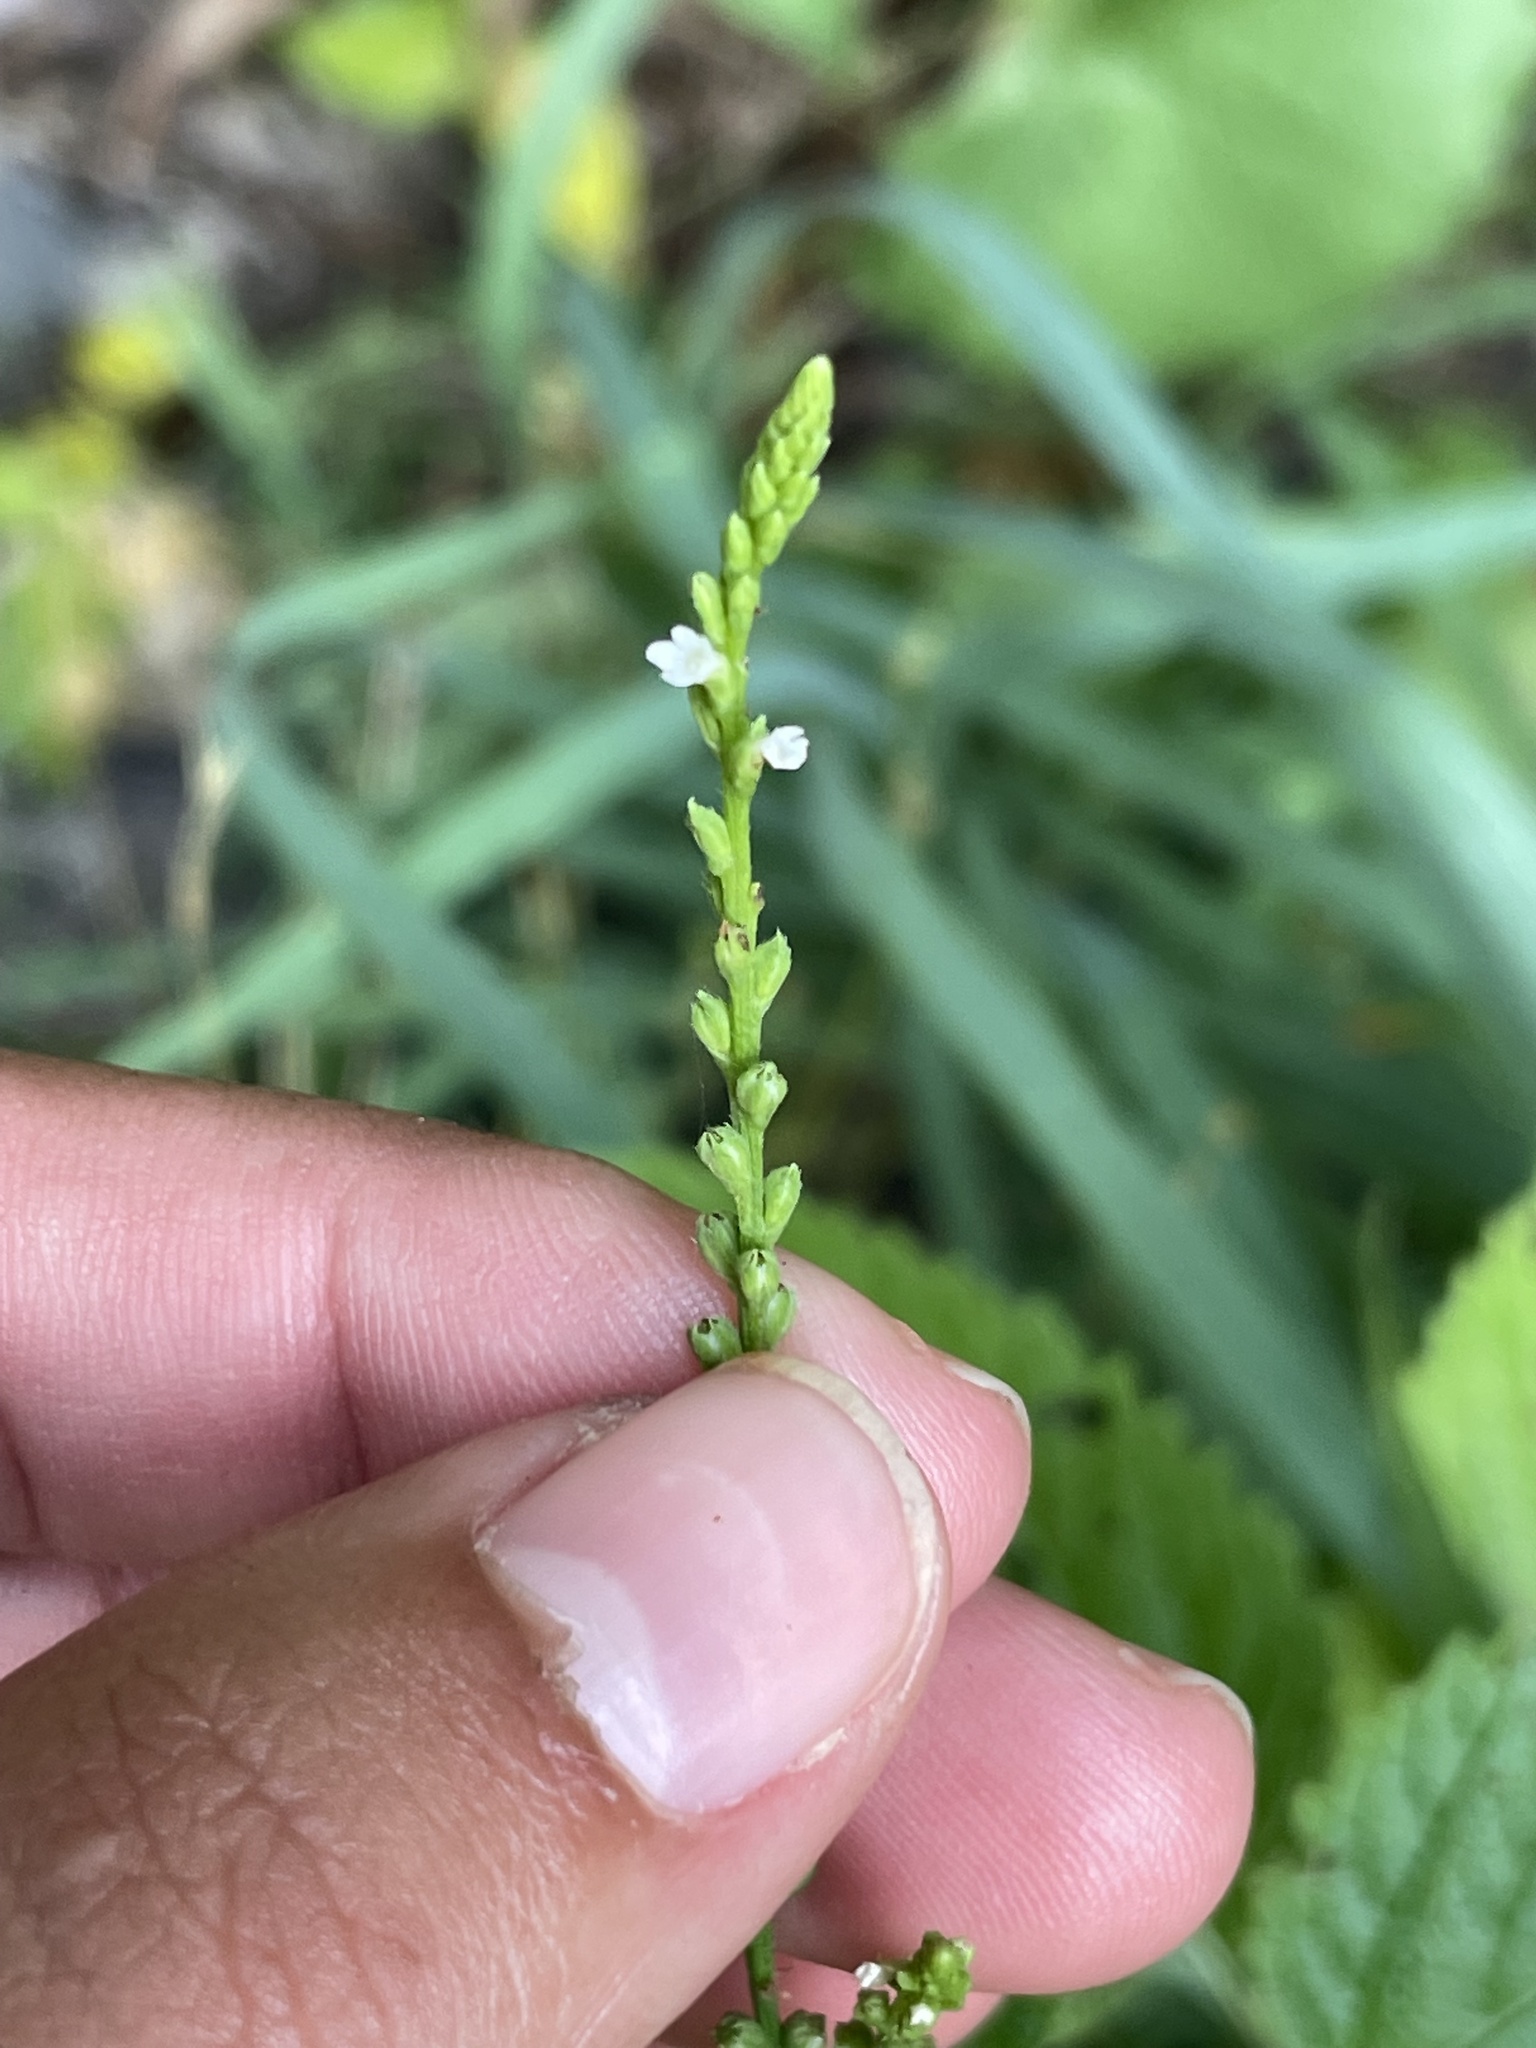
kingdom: Plantae
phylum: Tracheophyta
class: Magnoliopsida
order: Lamiales
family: Verbenaceae
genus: Verbena
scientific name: Verbena urticifolia
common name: Nettle-leaved vervain
